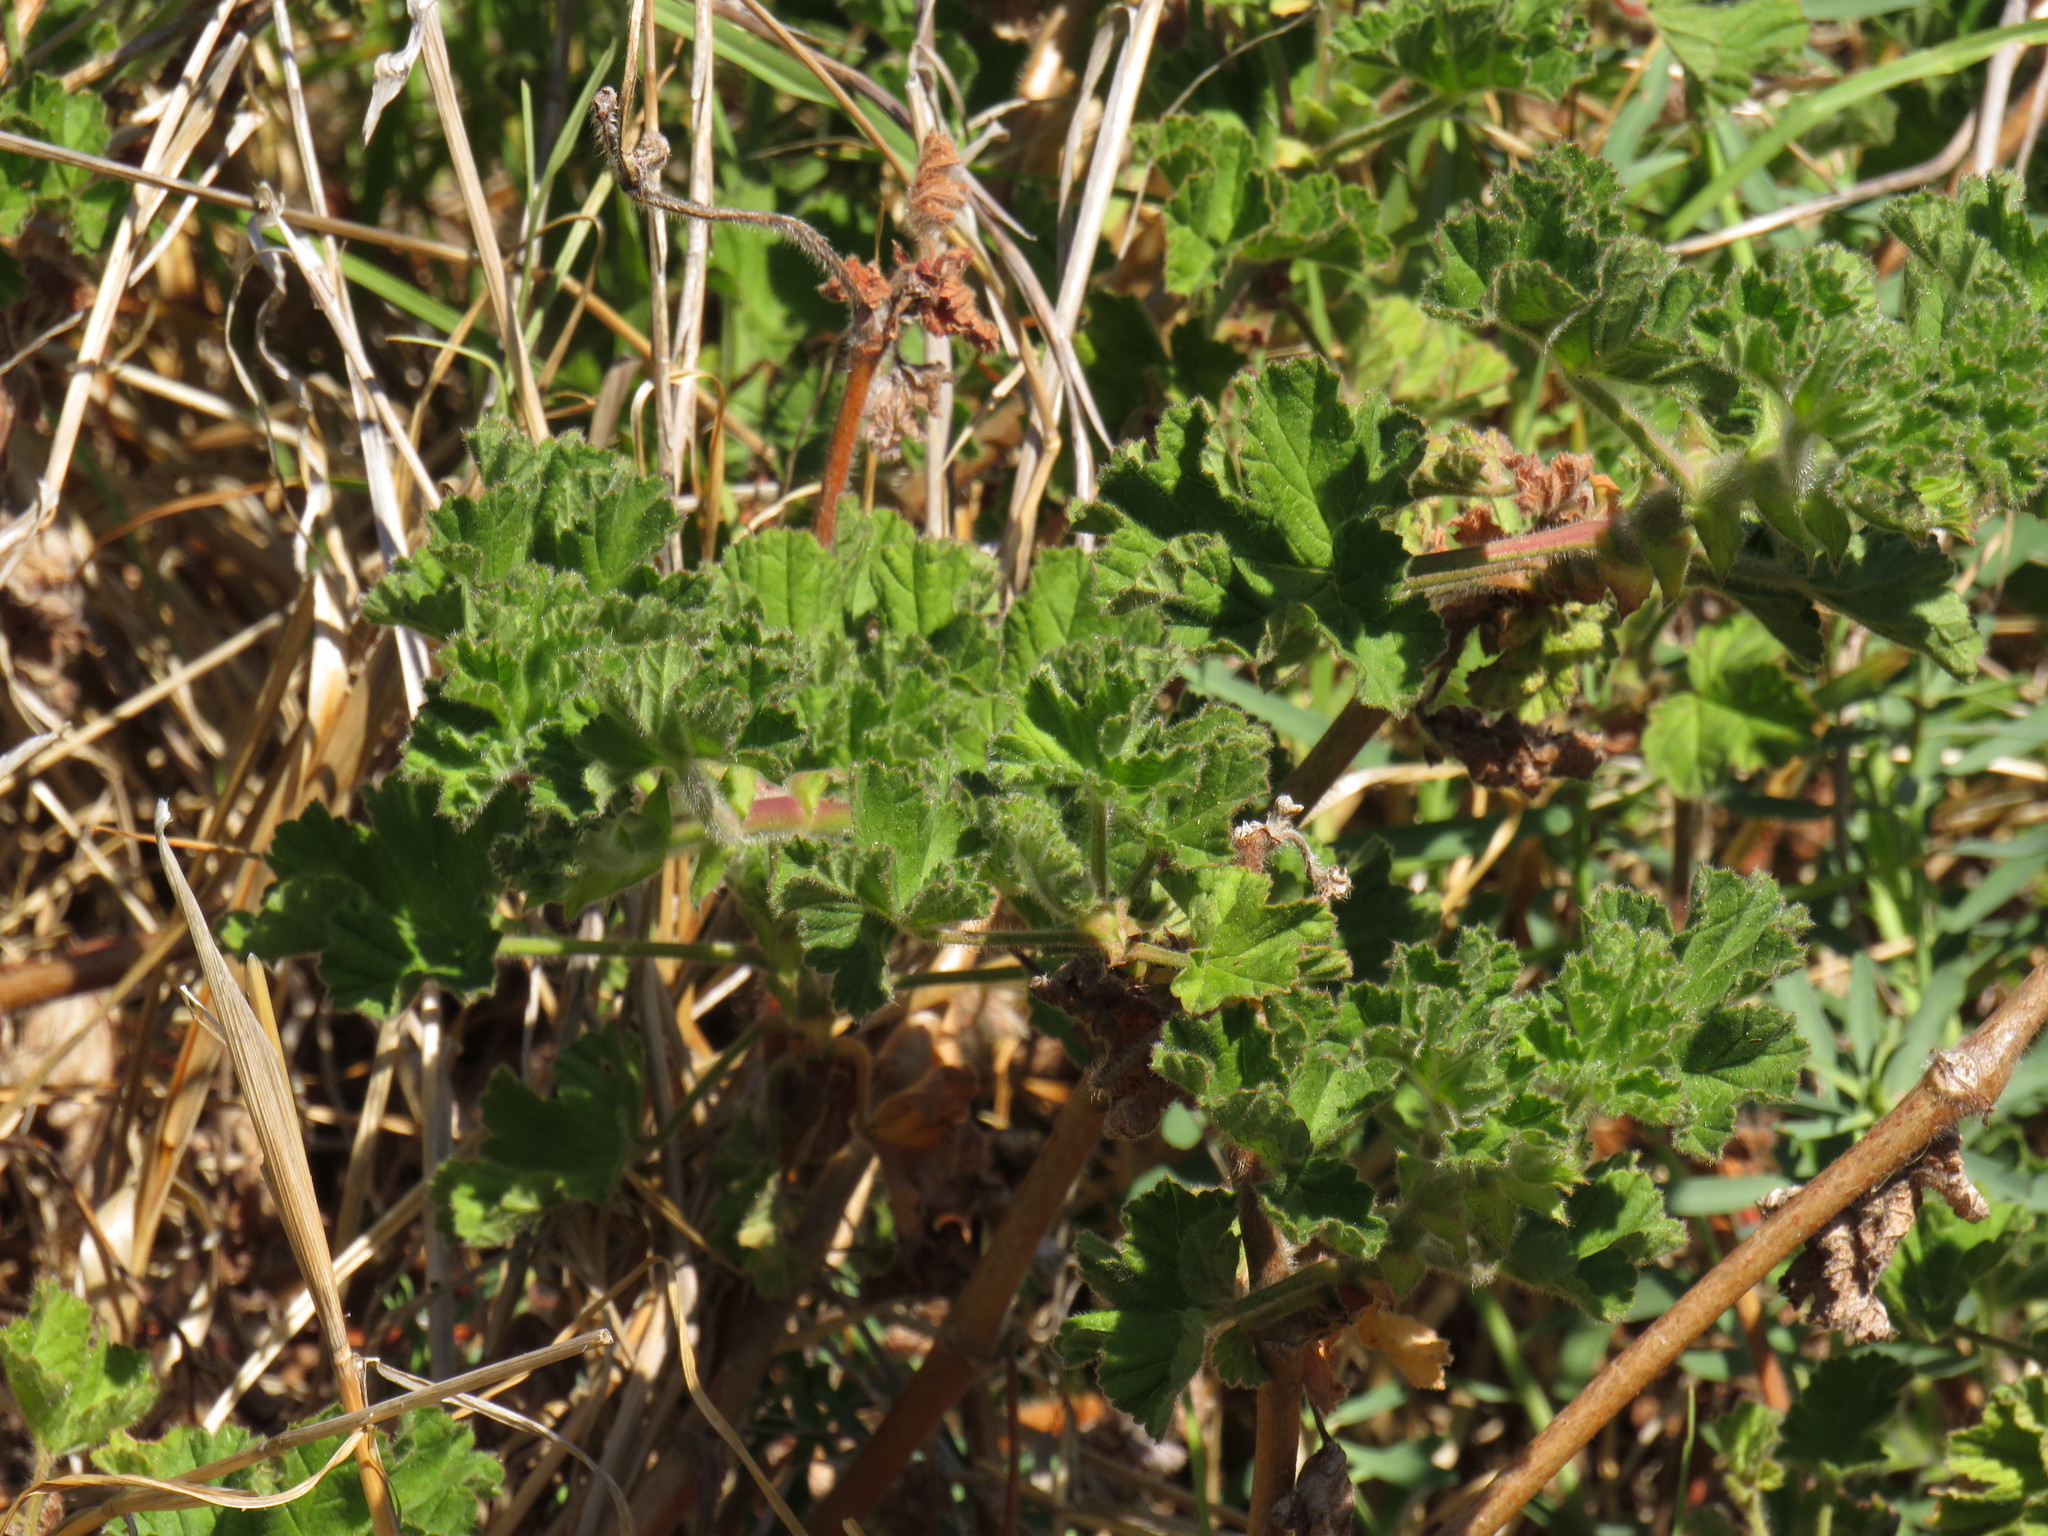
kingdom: Plantae
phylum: Tracheophyta
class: Magnoliopsida
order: Geraniales
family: Geraniaceae
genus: Pelargonium
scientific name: Pelargonium capitatum
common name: Rose scented geranium
